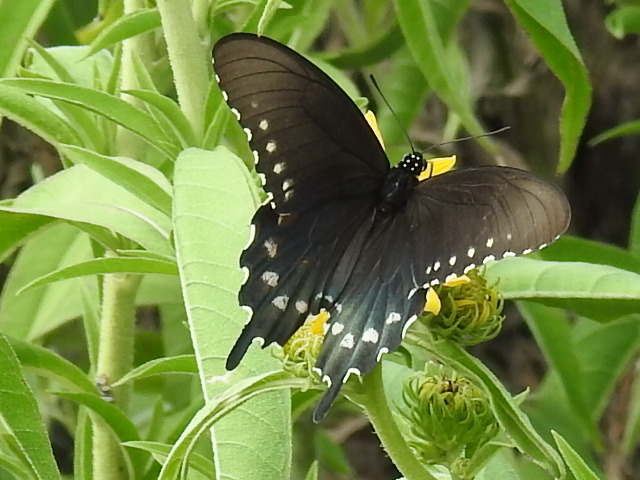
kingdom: Animalia
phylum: Arthropoda
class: Insecta
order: Lepidoptera
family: Papilionidae
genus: Battus
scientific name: Battus philenor
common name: Pipevine swallowtail
